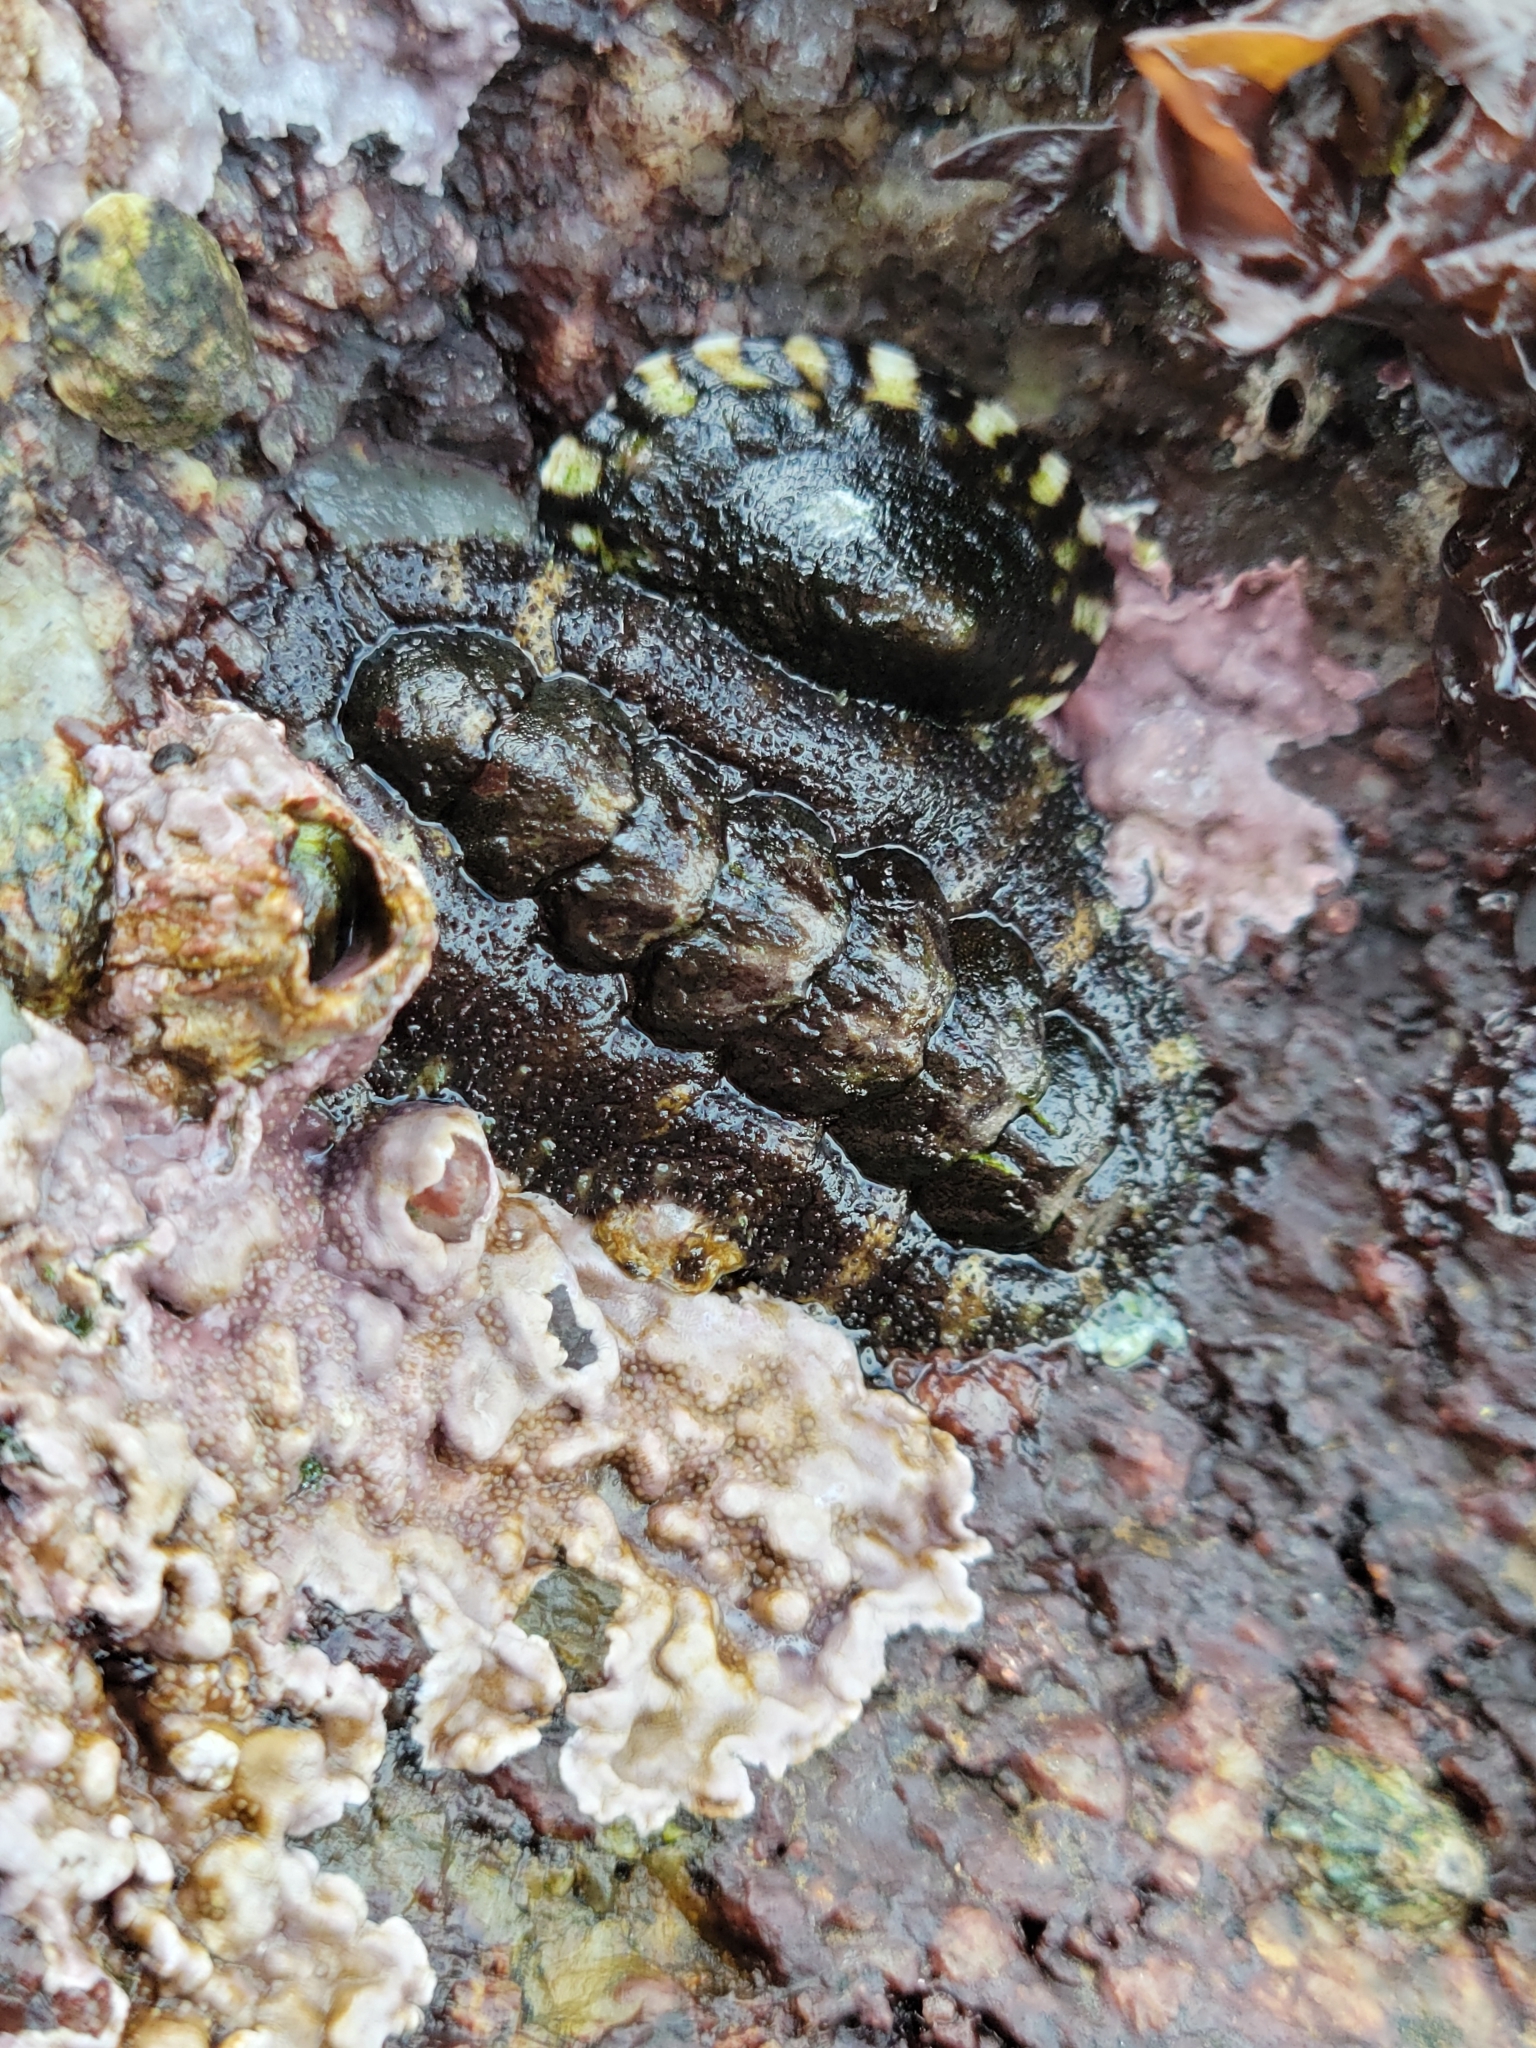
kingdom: Animalia
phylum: Mollusca
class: Polyplacophora
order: Chitonida
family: Tonicellidae
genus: Nuttallina
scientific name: Nuttallina californica
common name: California nuttall chiton
